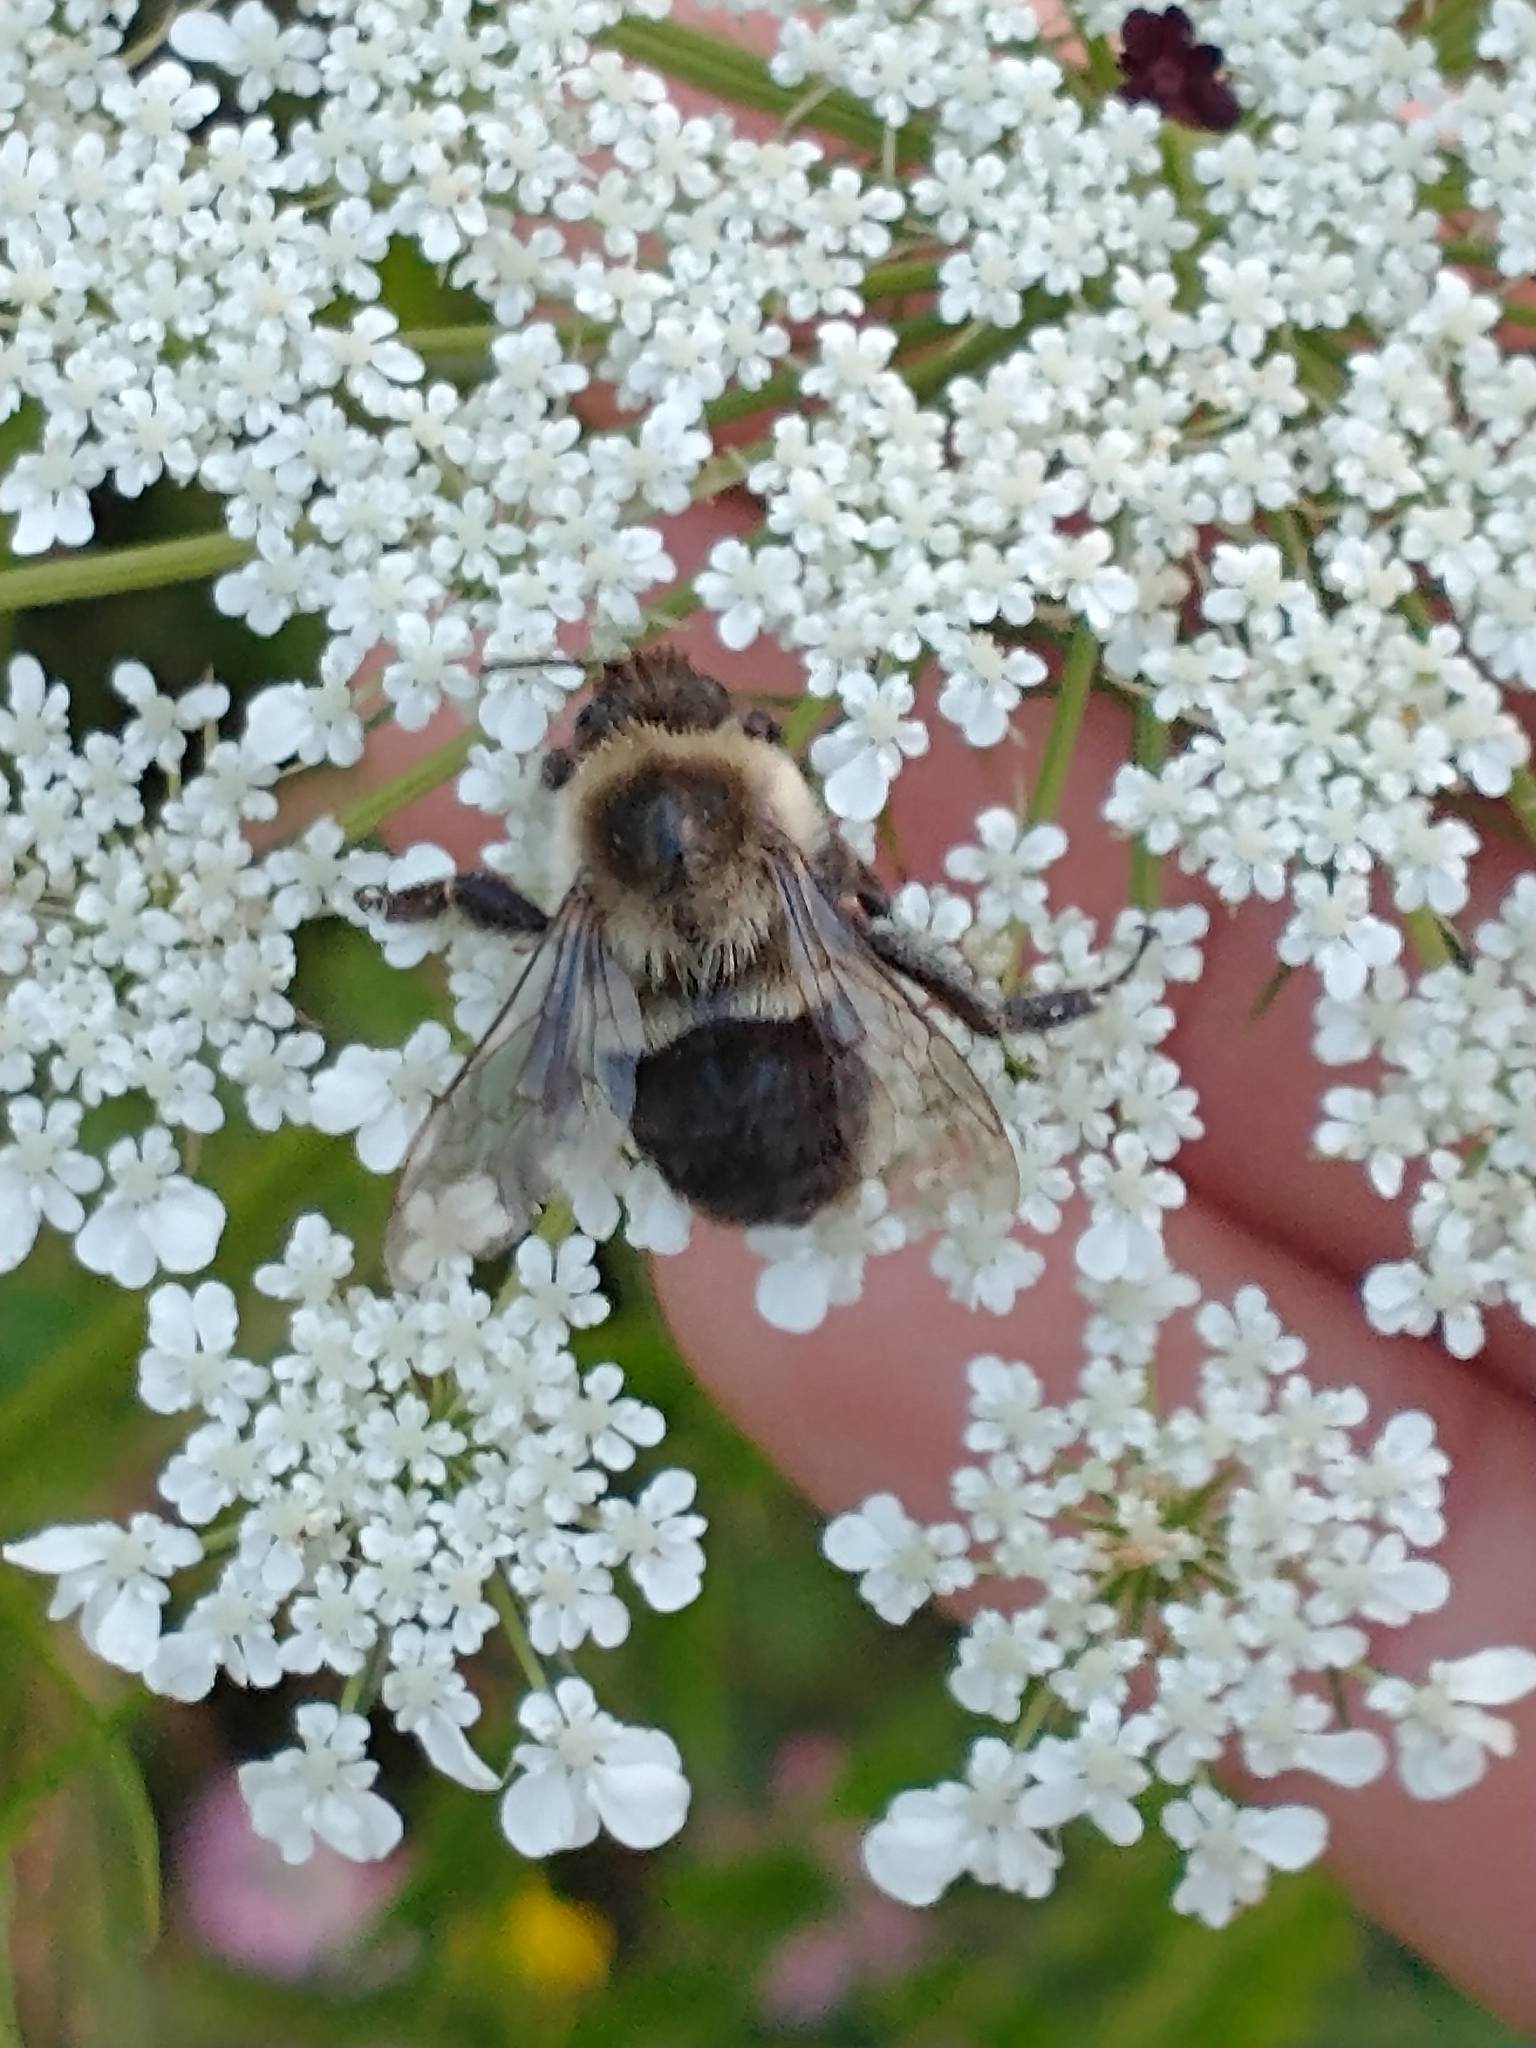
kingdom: Animalia
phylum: Arthropoda
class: Insecta
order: Hymenoptera
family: Apidae
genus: Bombus
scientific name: Bombus impatiens
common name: Common eastern bumble bee
